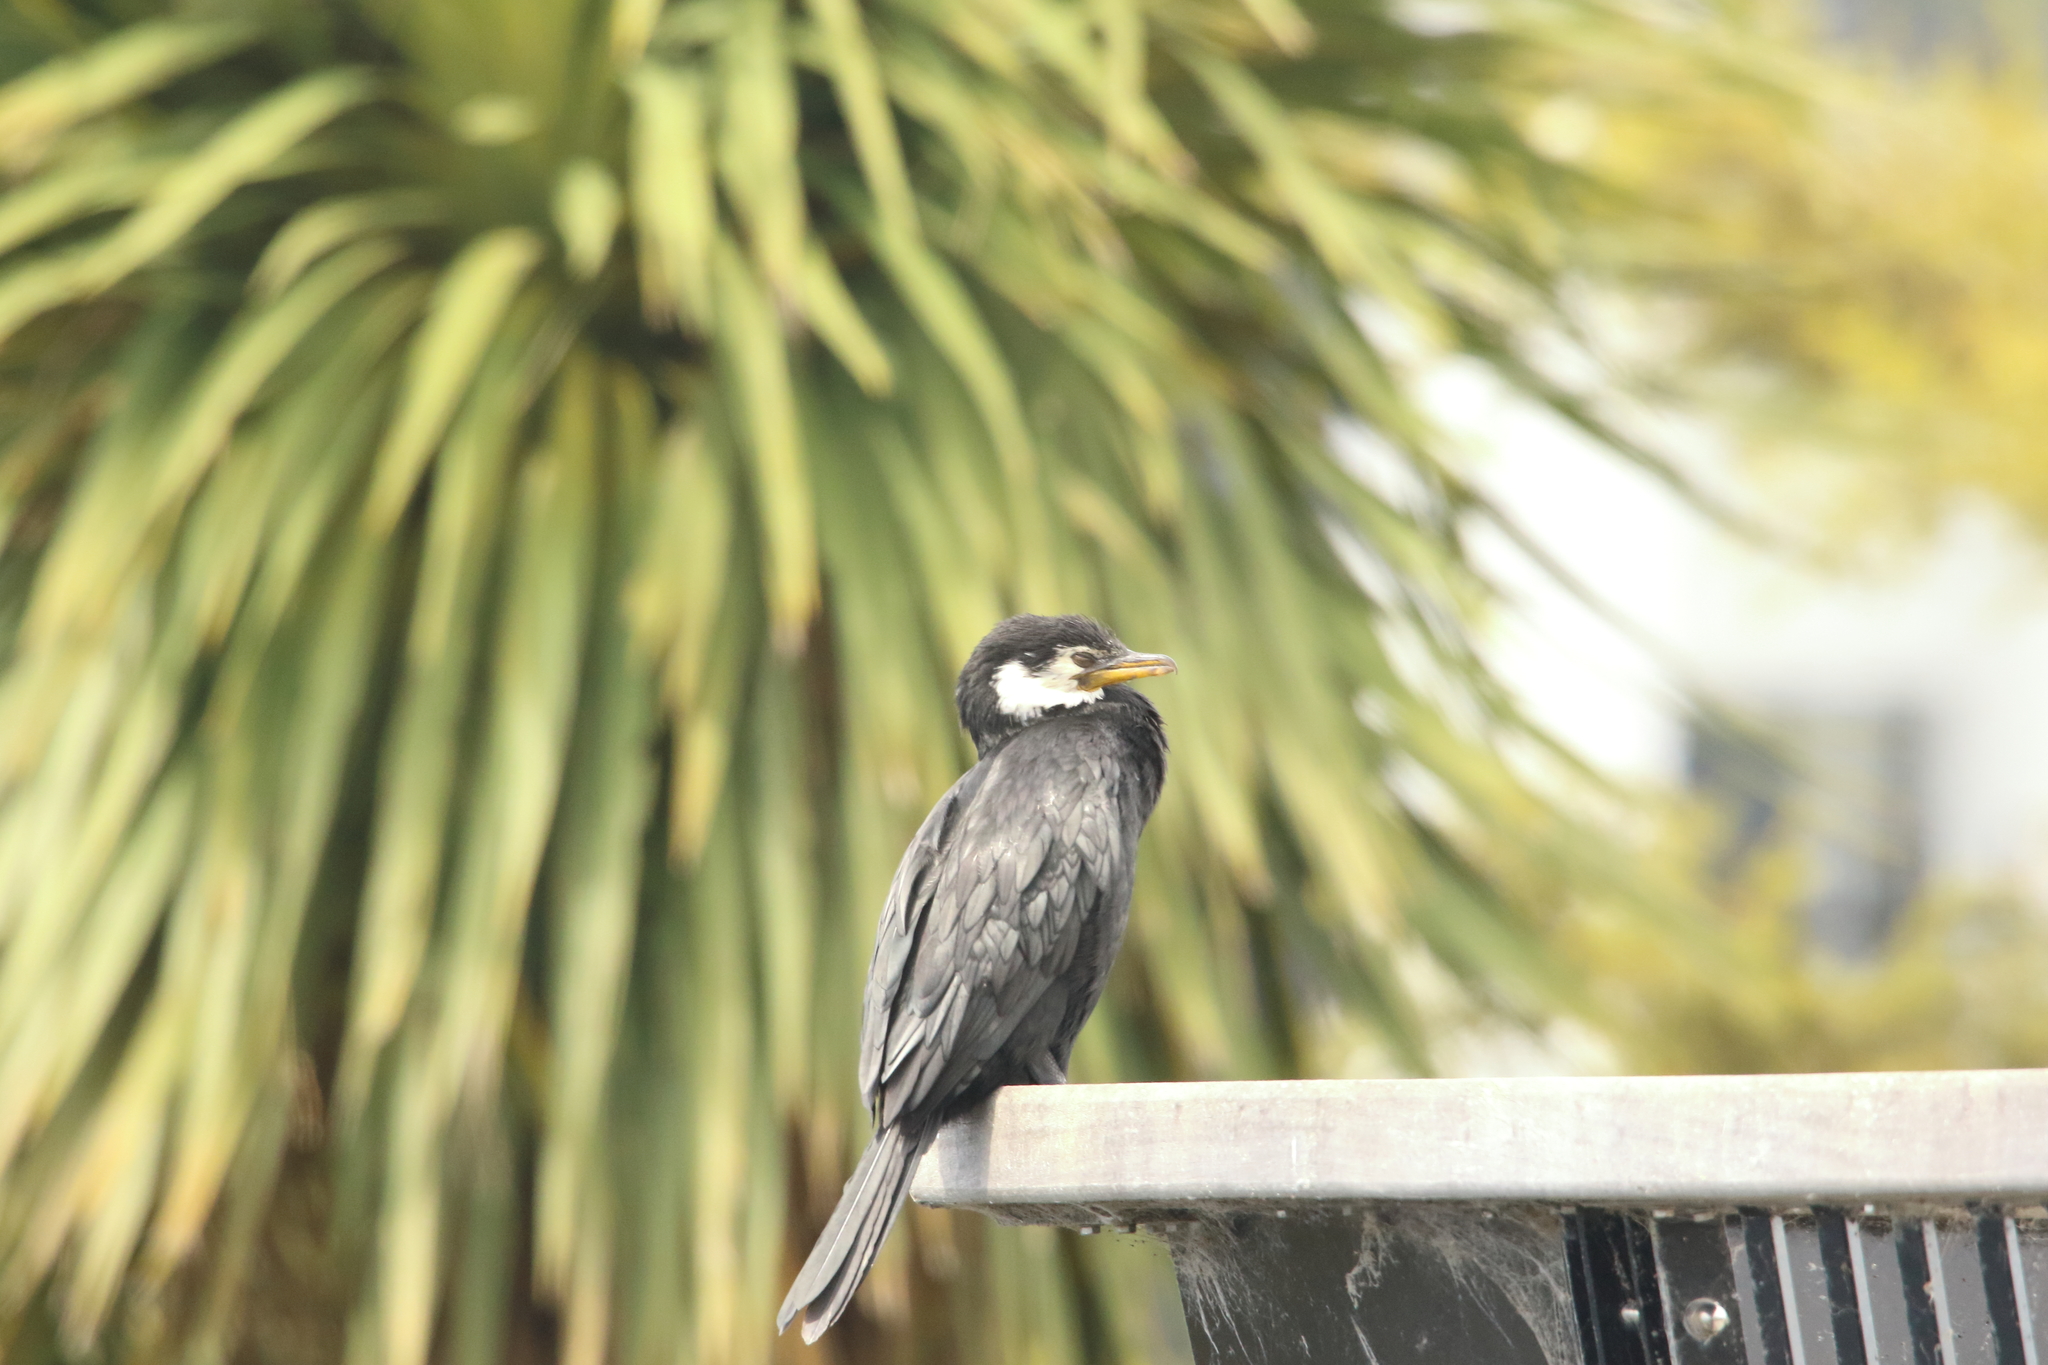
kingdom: Animalia
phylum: Chordata
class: Aves
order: Suliformes
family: Phalacrocoracidae
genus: Microcarbo
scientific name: Microcarbo melanoleucos
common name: Little pied cormorant
